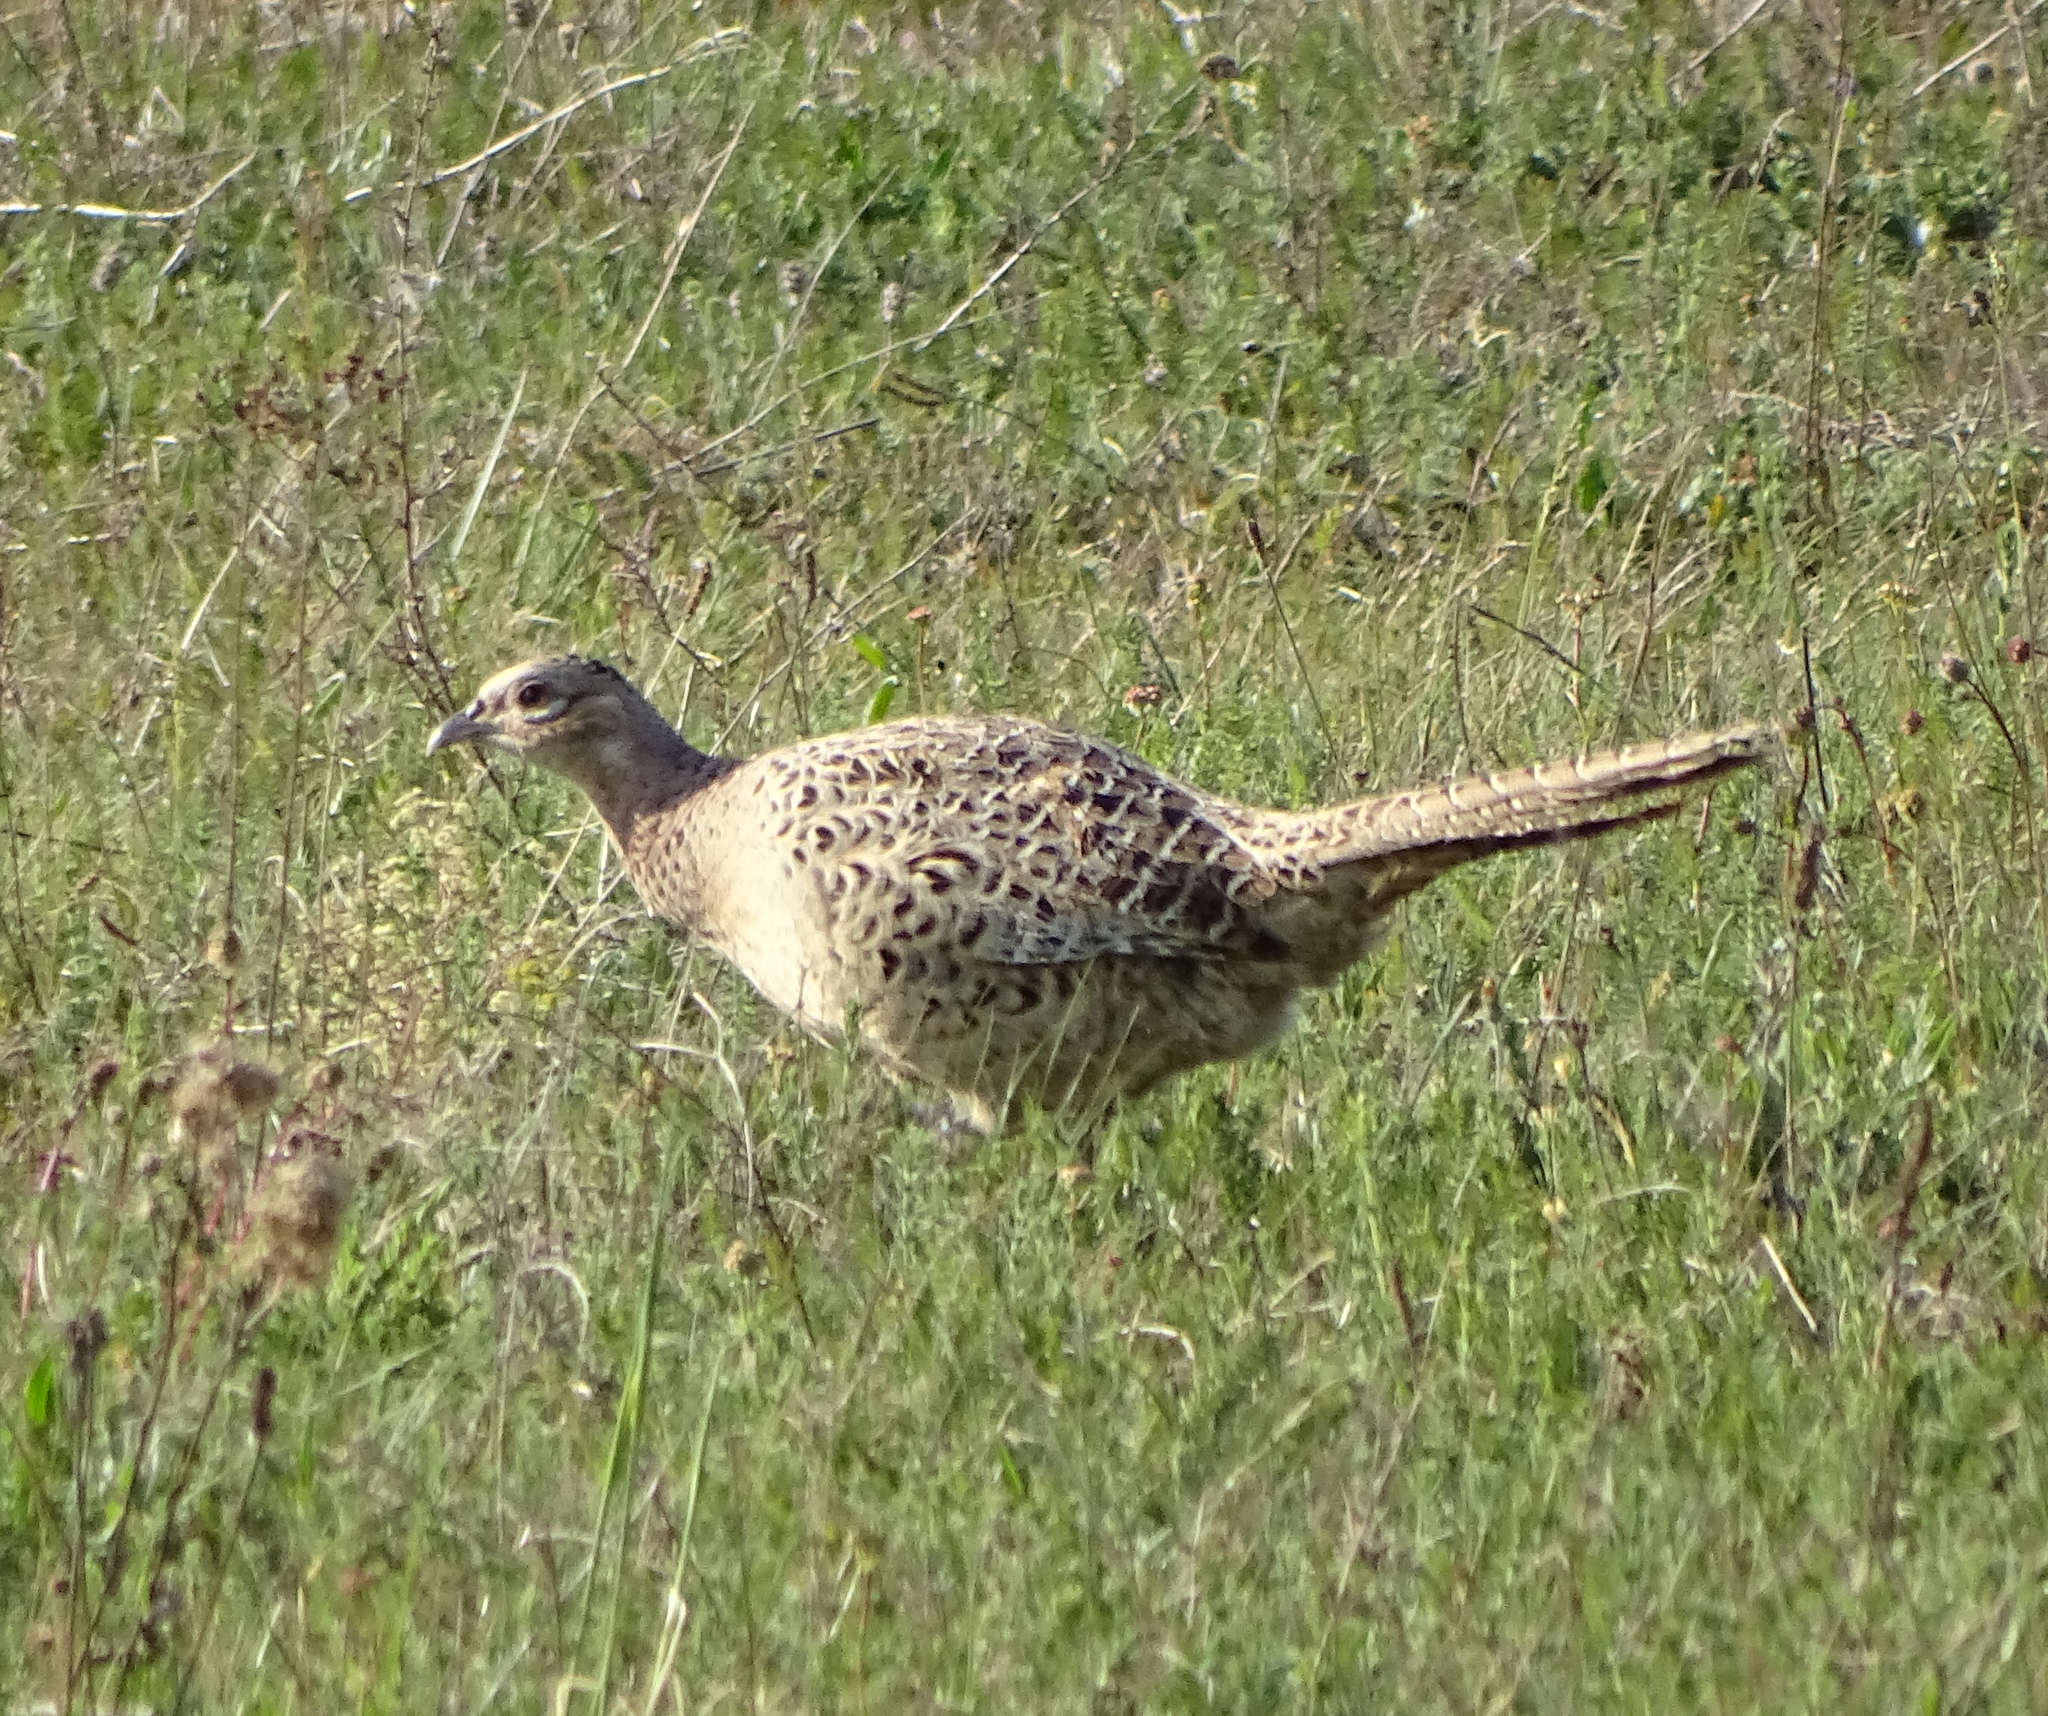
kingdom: Animalia
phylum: Chordata
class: Aves
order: Galliformes
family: Phasianidae
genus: Phasianus
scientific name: Phasianus colchicus
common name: Common pheasant
